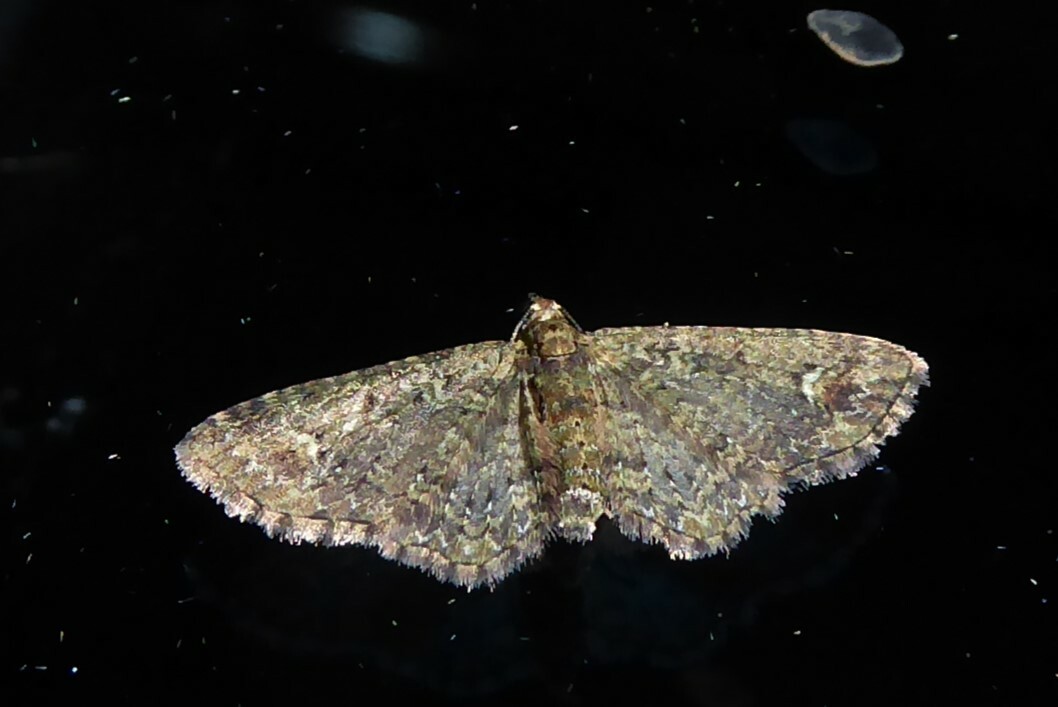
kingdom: Animalia
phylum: Arthropoda
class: Insecta
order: Lepidoptera
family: Geometridae
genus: Pasiphilodes
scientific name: Pasiphilodes testulata
